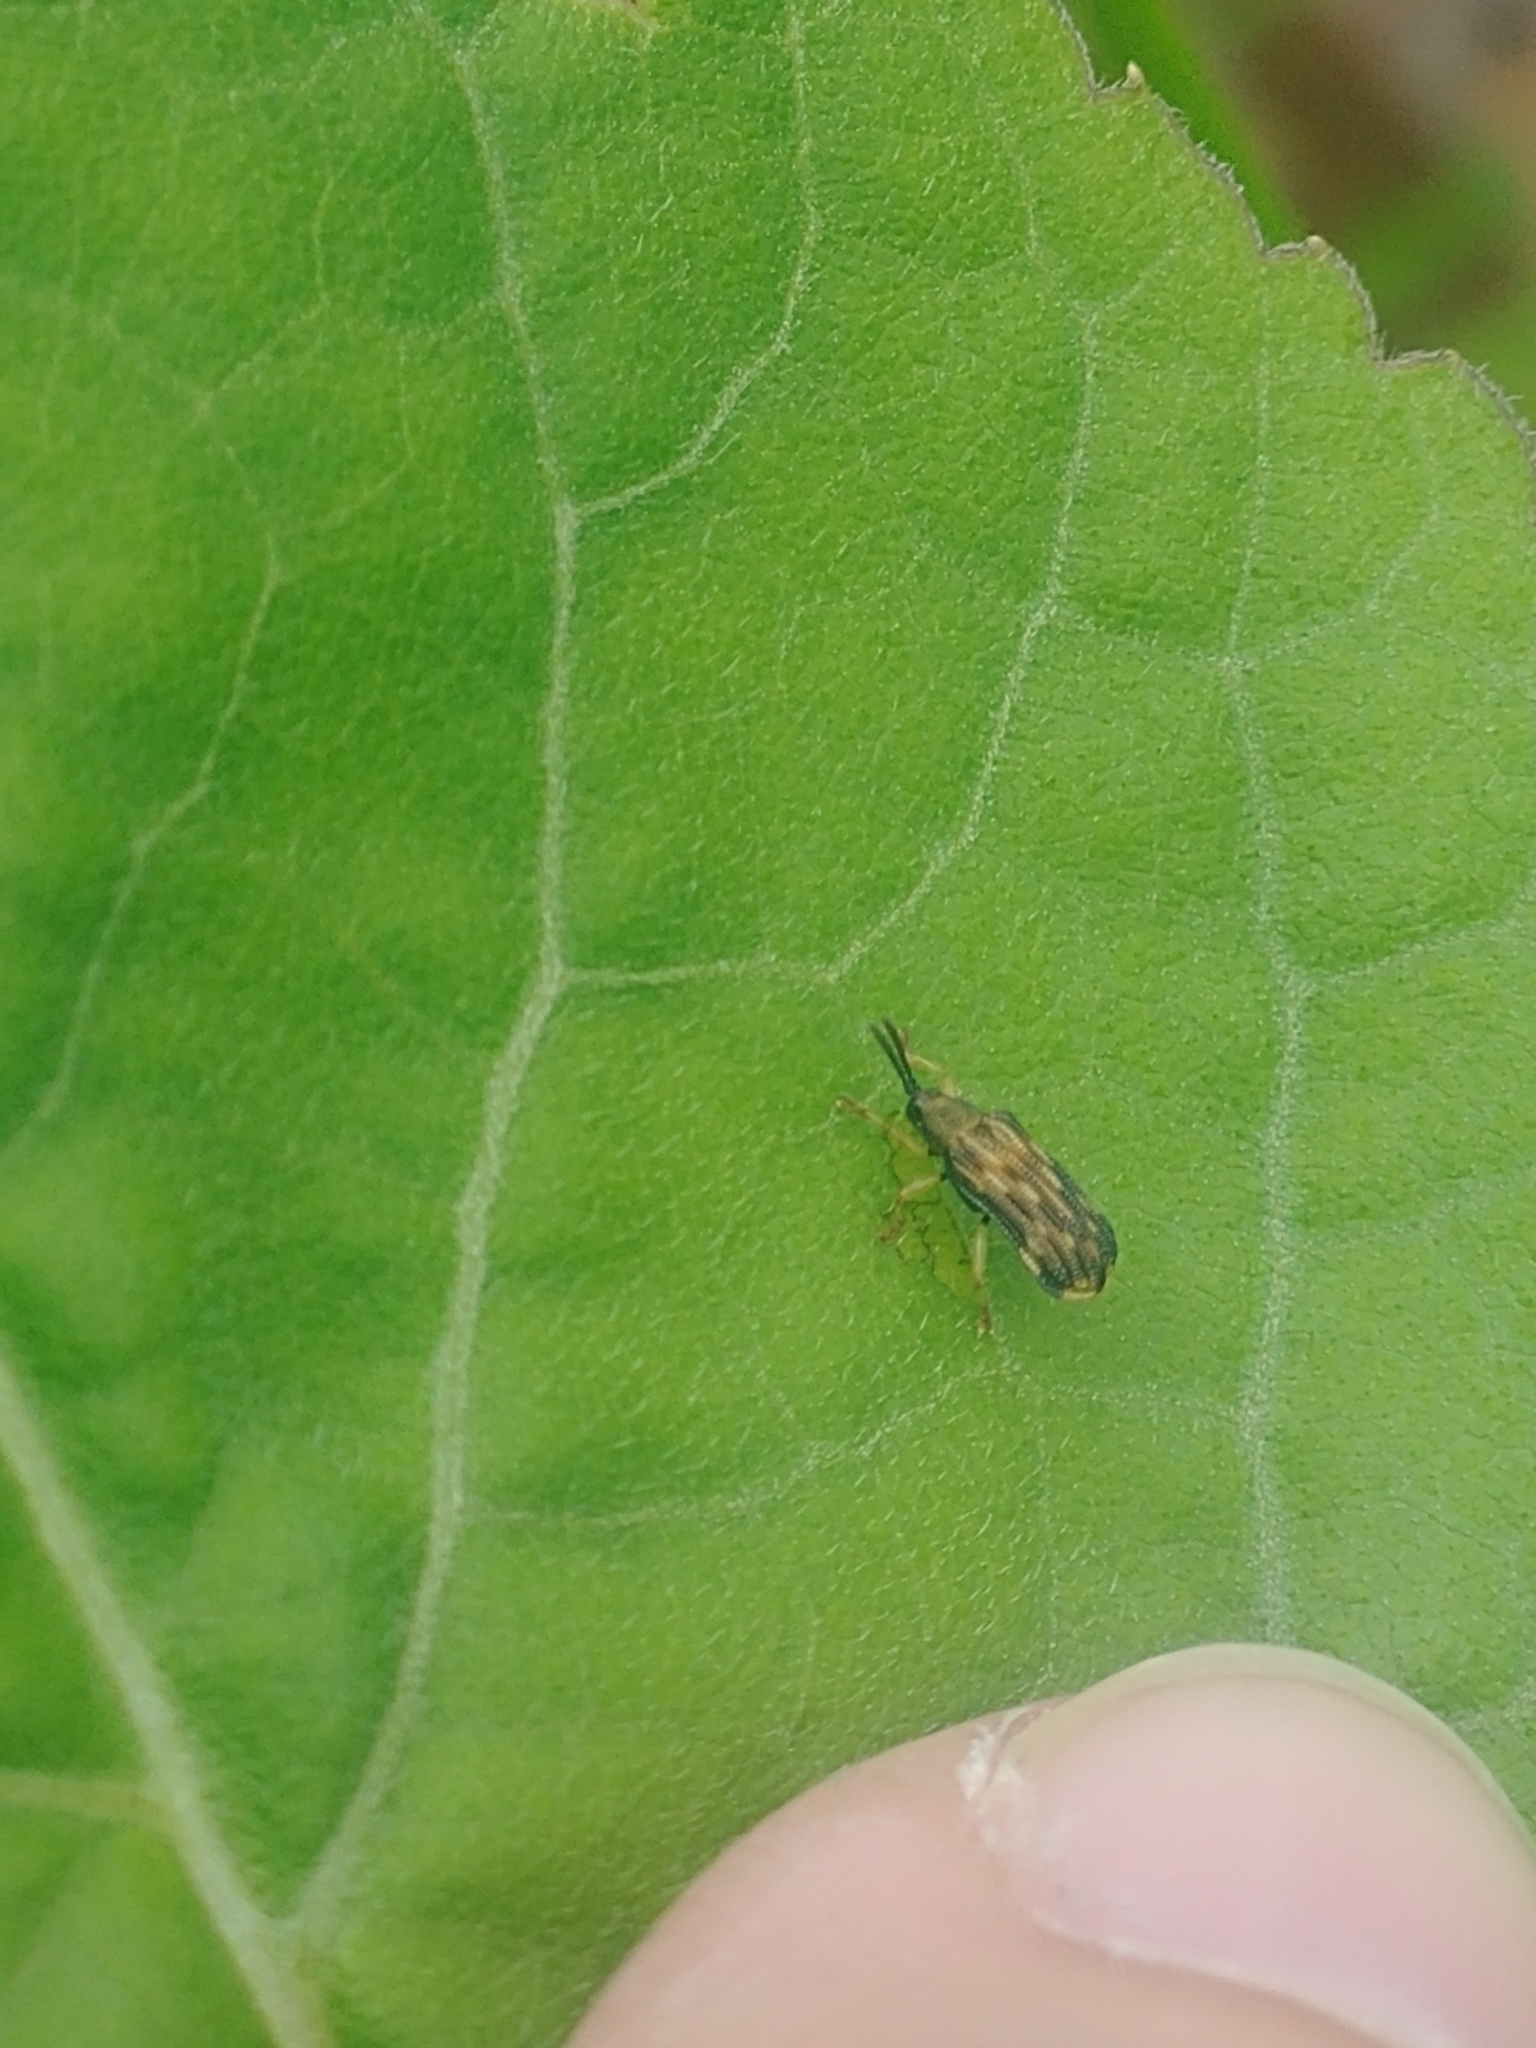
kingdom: Animalia
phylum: Arthropoda
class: Insecta
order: Coleoptera
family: Chrysomelidae
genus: Sumitrosis
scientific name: Sumitrosis inaequalis
